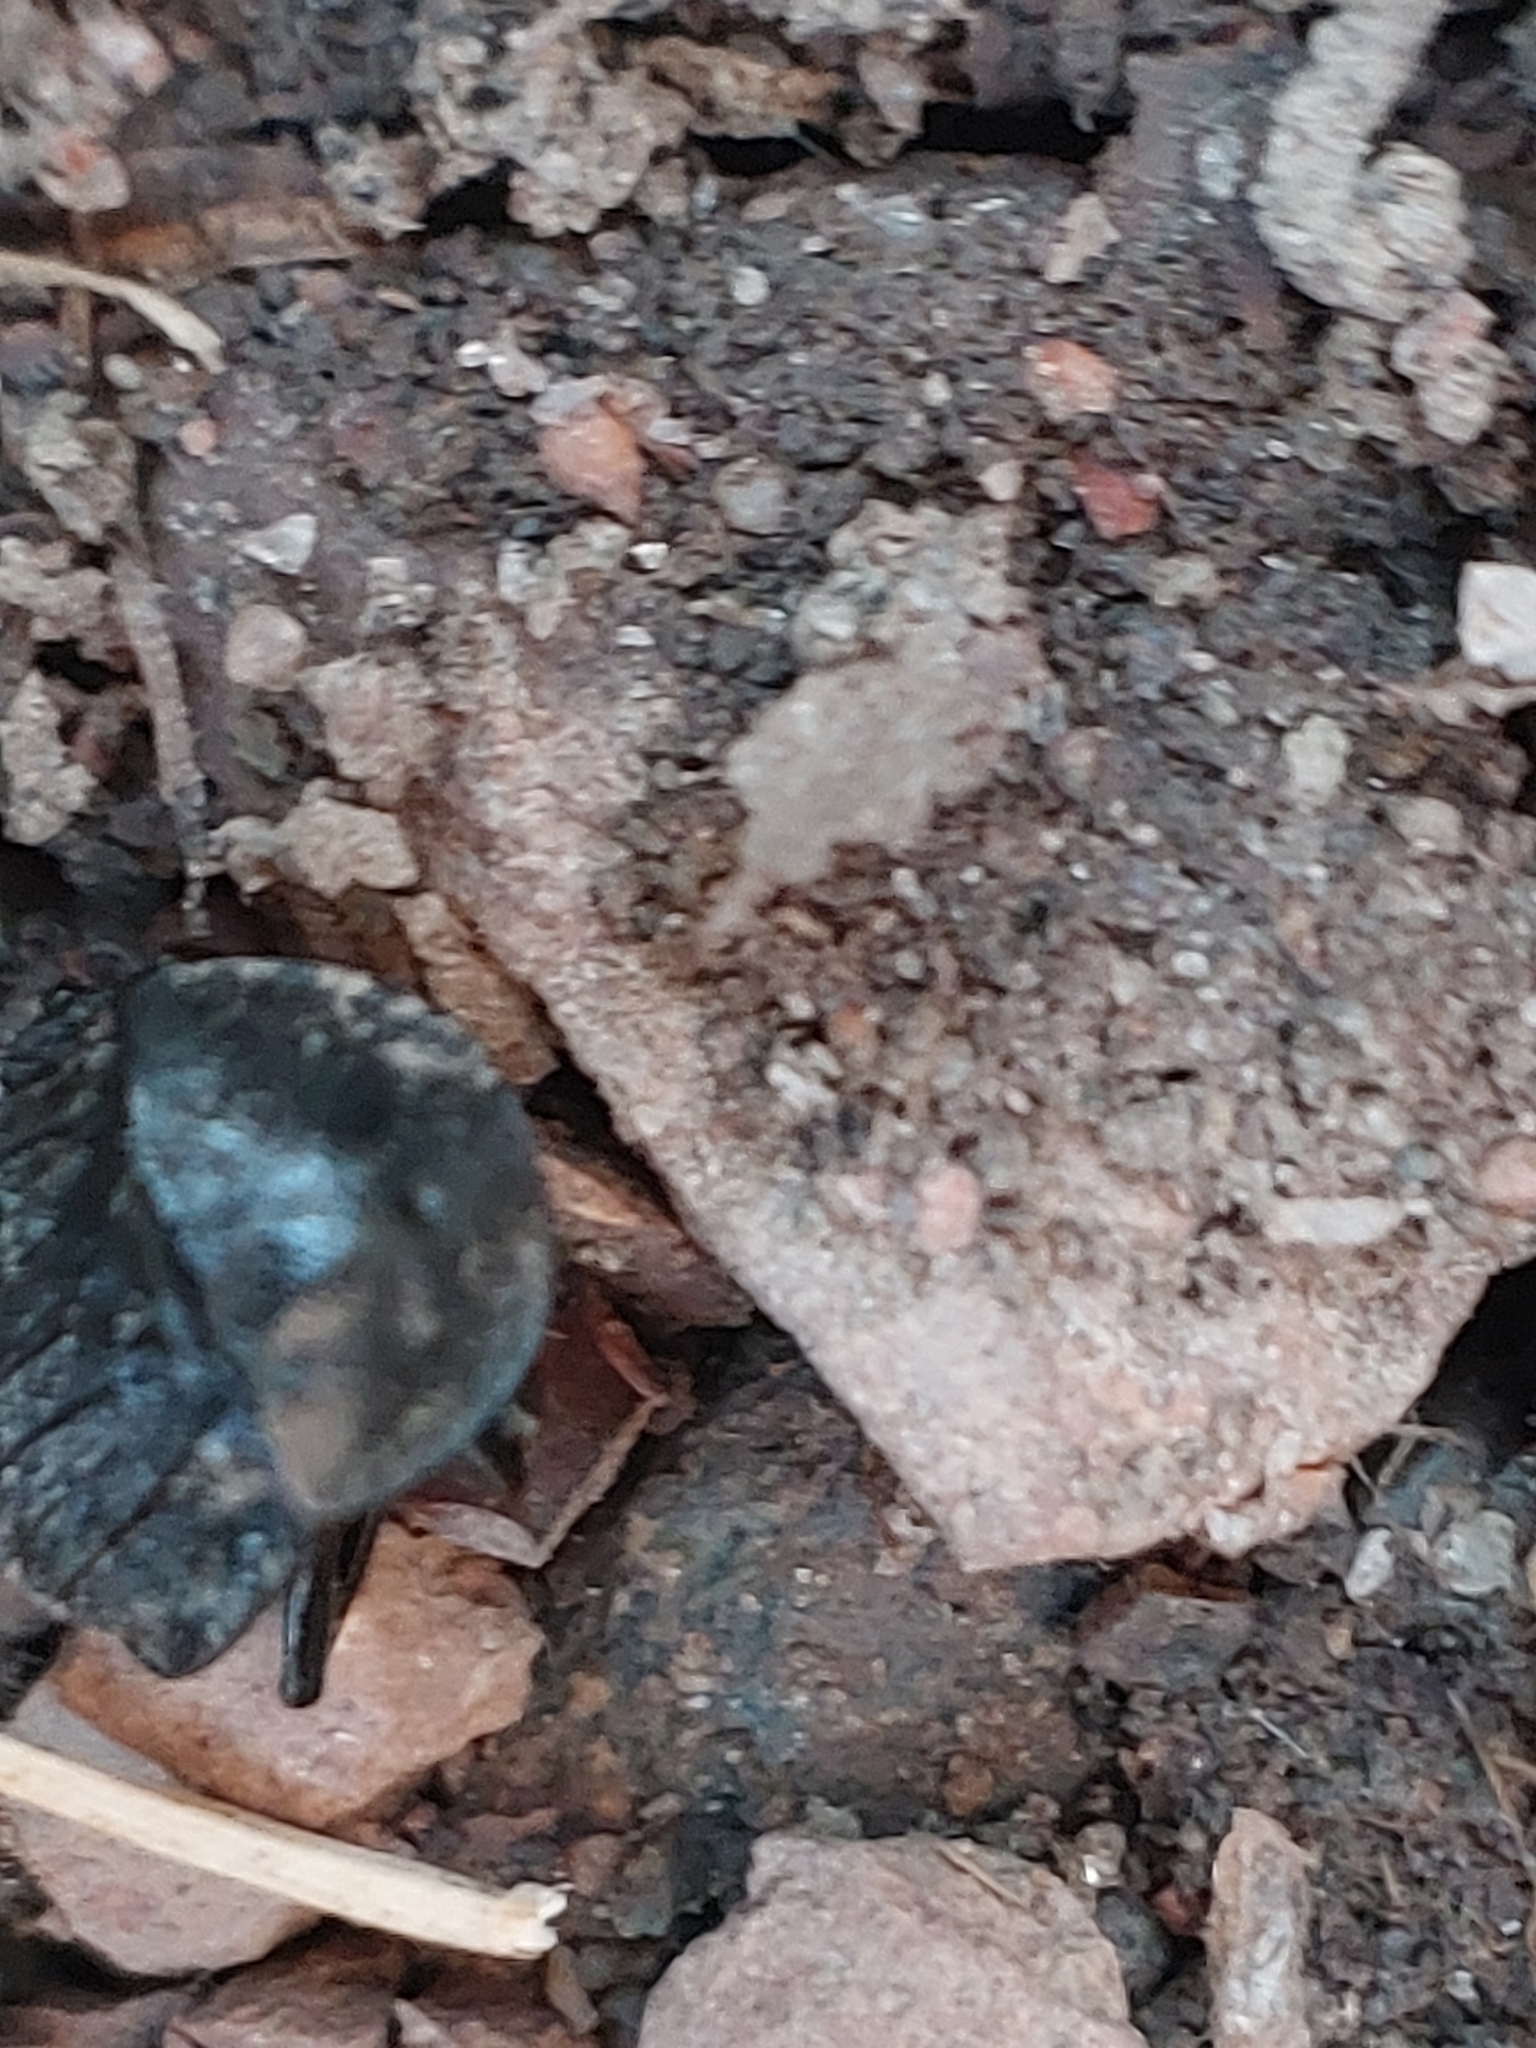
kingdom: Animalia
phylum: Arthropoda
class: Insecta
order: Coleoptera
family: Staphylinidae
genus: Silpha
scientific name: Silpha atrata
